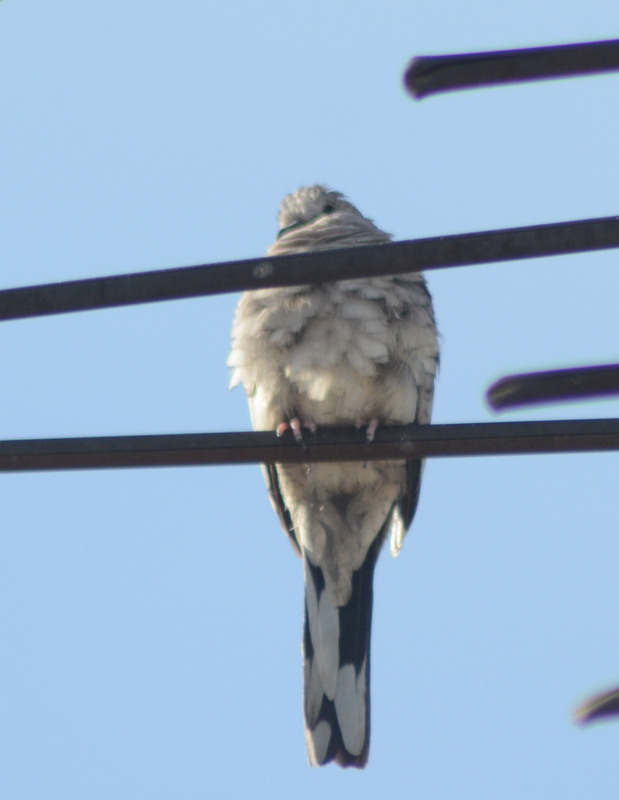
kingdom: Animalia
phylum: Chordata
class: Aves
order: Columbiformes
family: Columbidae
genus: Columbina
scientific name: Columbina inca
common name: Inca dove
